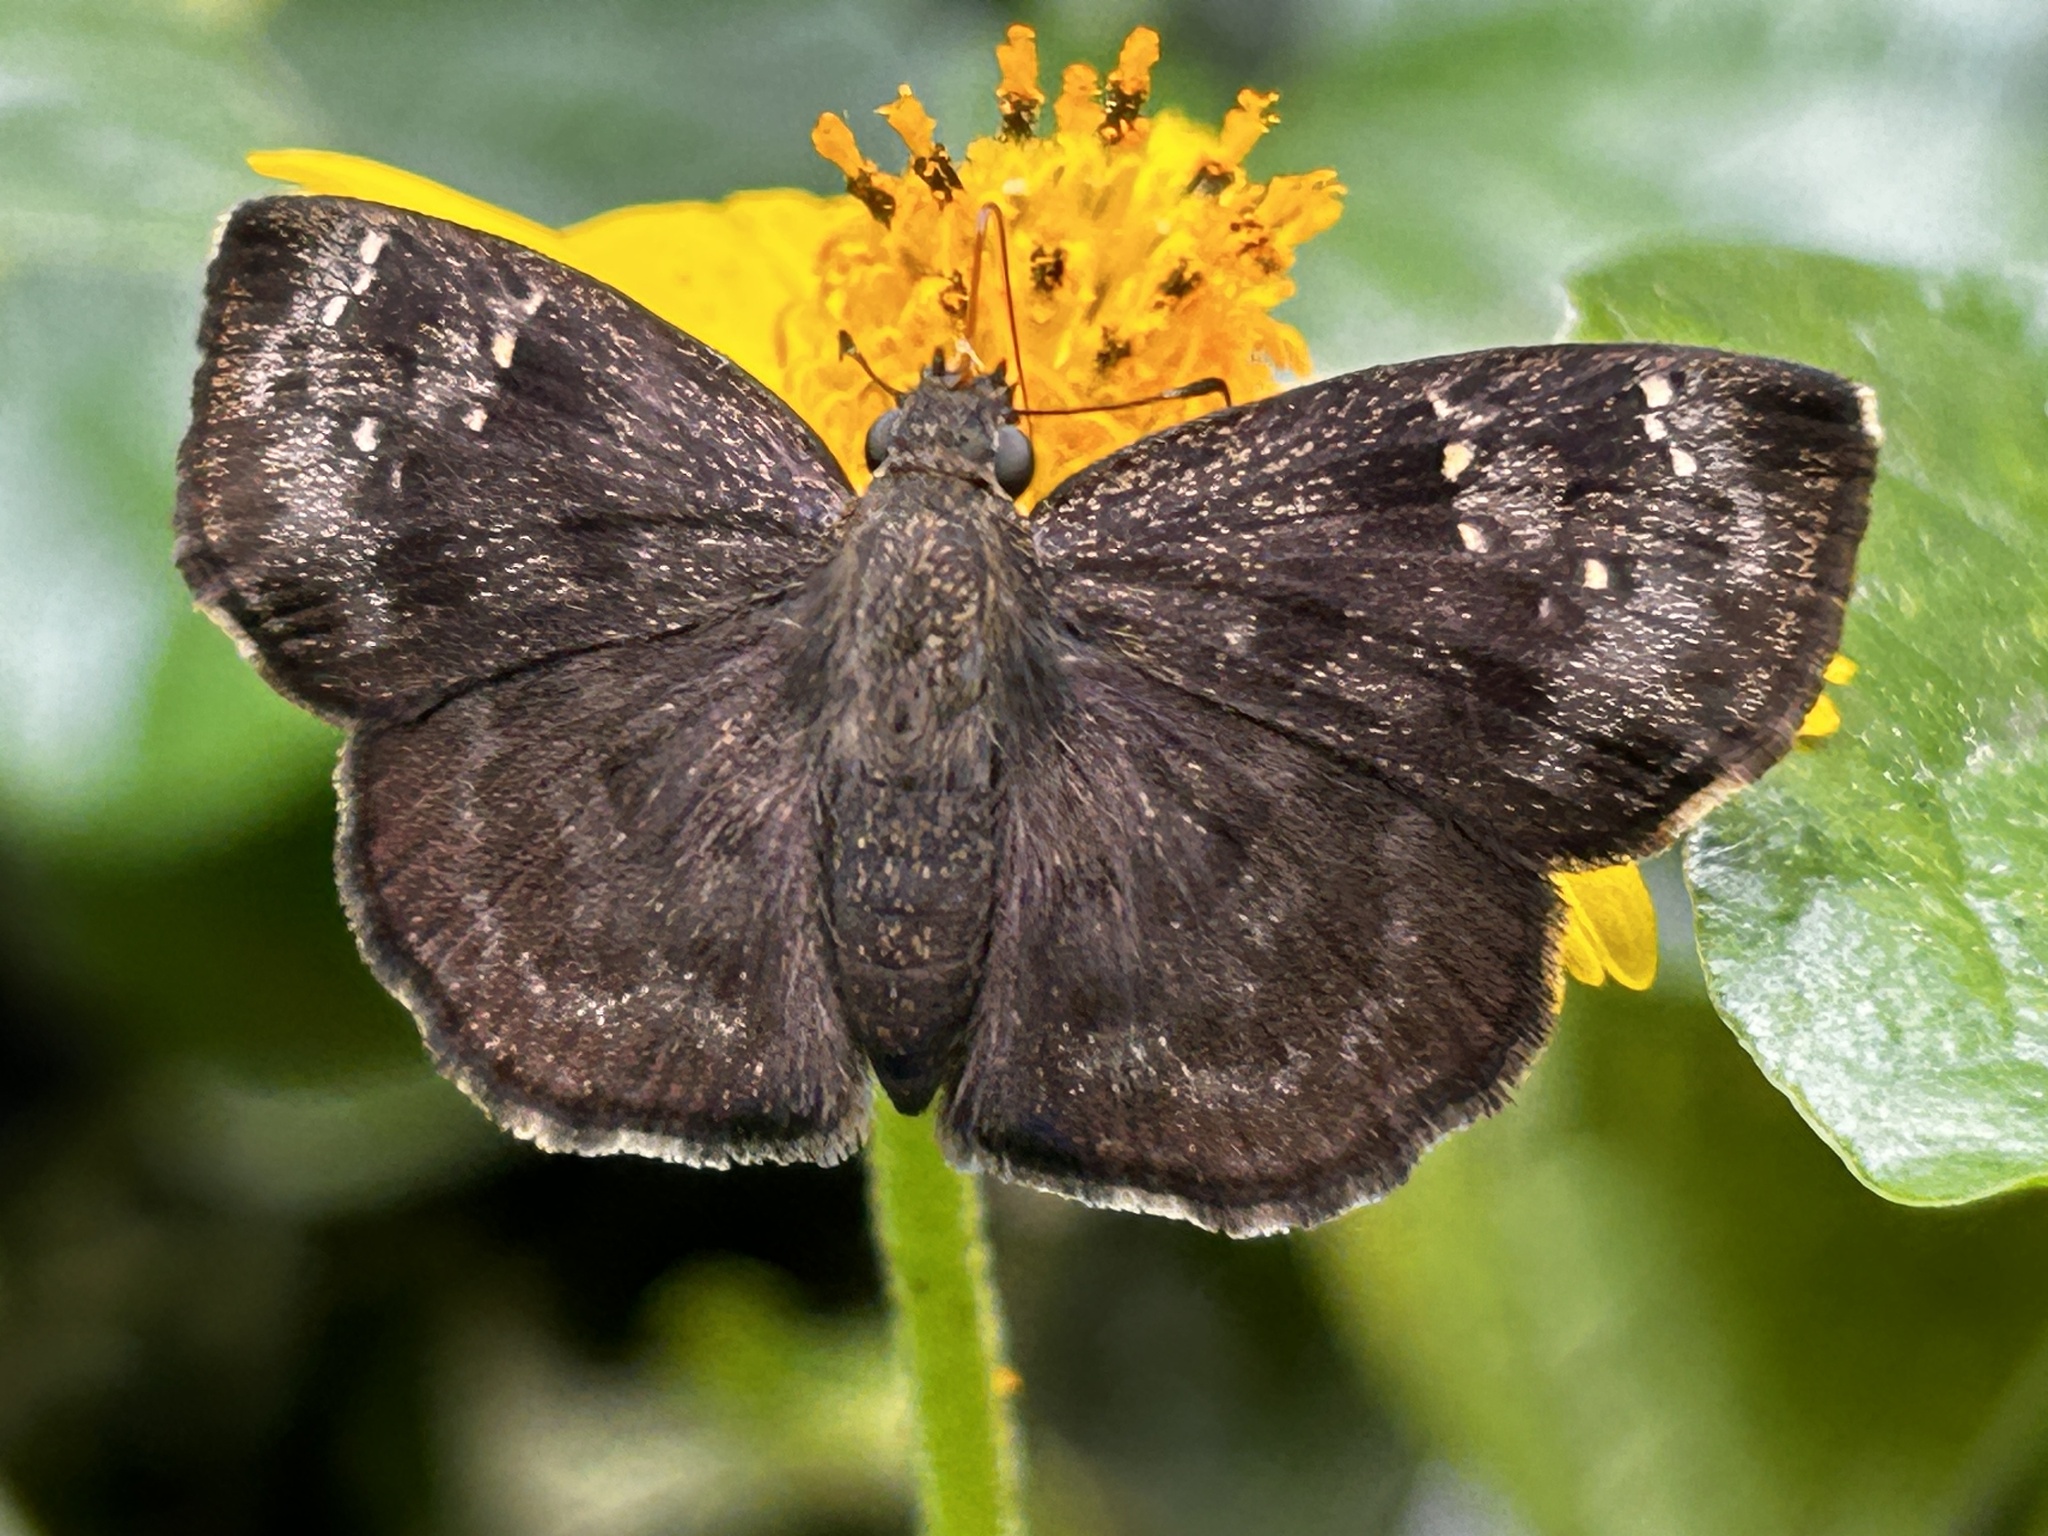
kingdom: Animalia
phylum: Arthropoda
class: Insecta
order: Lepidoptera
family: Hesperiidae
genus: Sarangesa
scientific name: Sarangesa dasahara
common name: Common small flat
